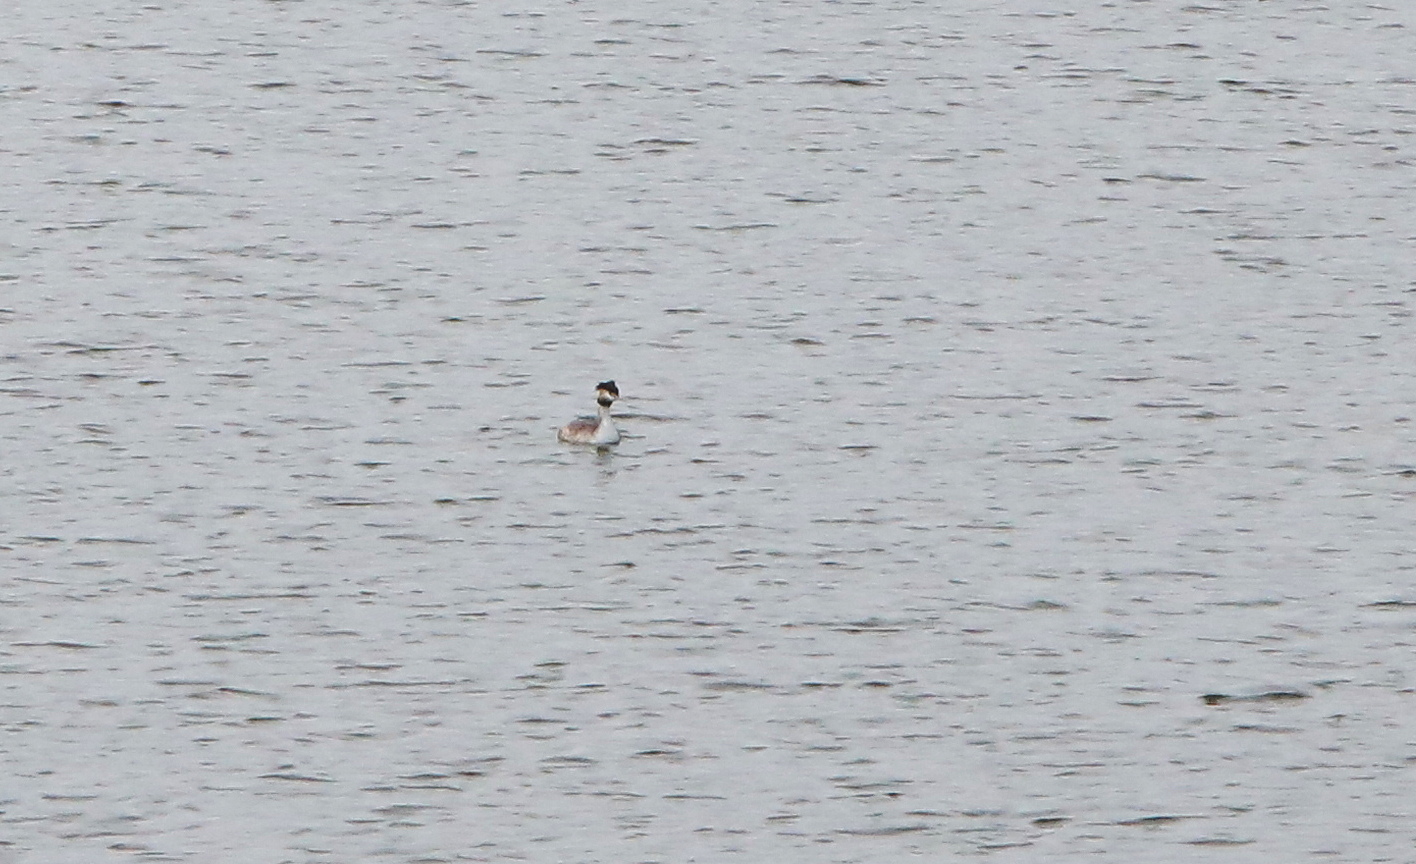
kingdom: Animalia
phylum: Chordata
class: Aves
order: Podicipediformes
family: Podicipedidae
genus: Podiceps
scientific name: Podiceps cristatus
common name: Great crested grebe
